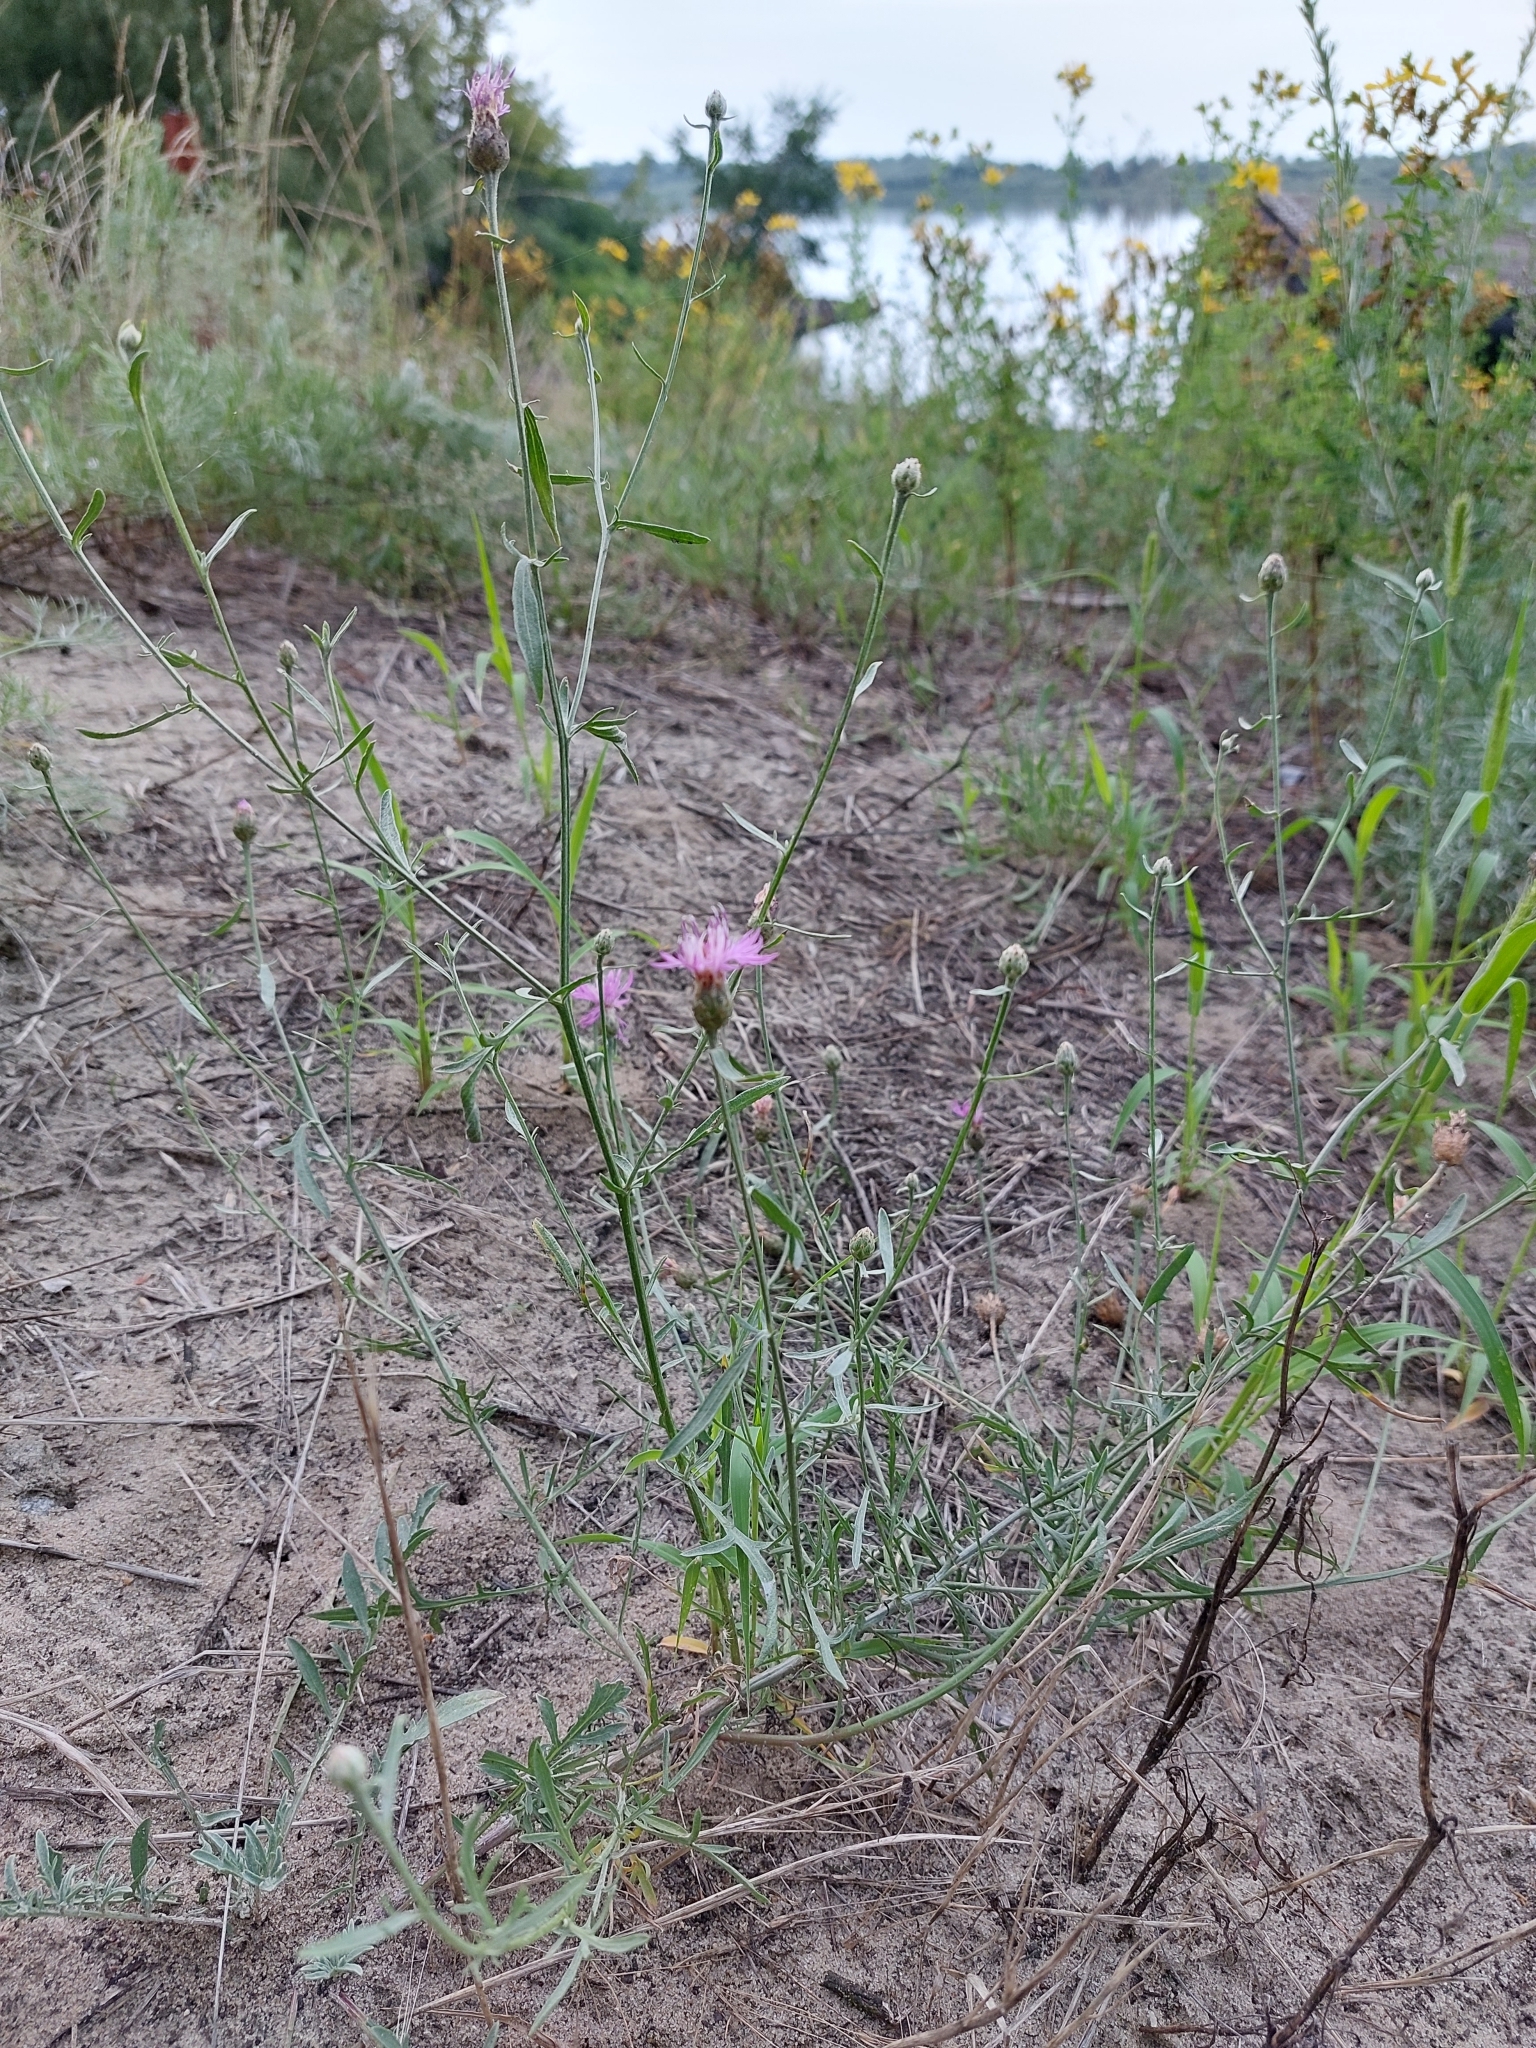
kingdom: Plantae
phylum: Tracheophyta
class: Magnoliopsida
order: Asterales
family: Asteraceae
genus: Centaurea
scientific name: Centaurea borysthenica
